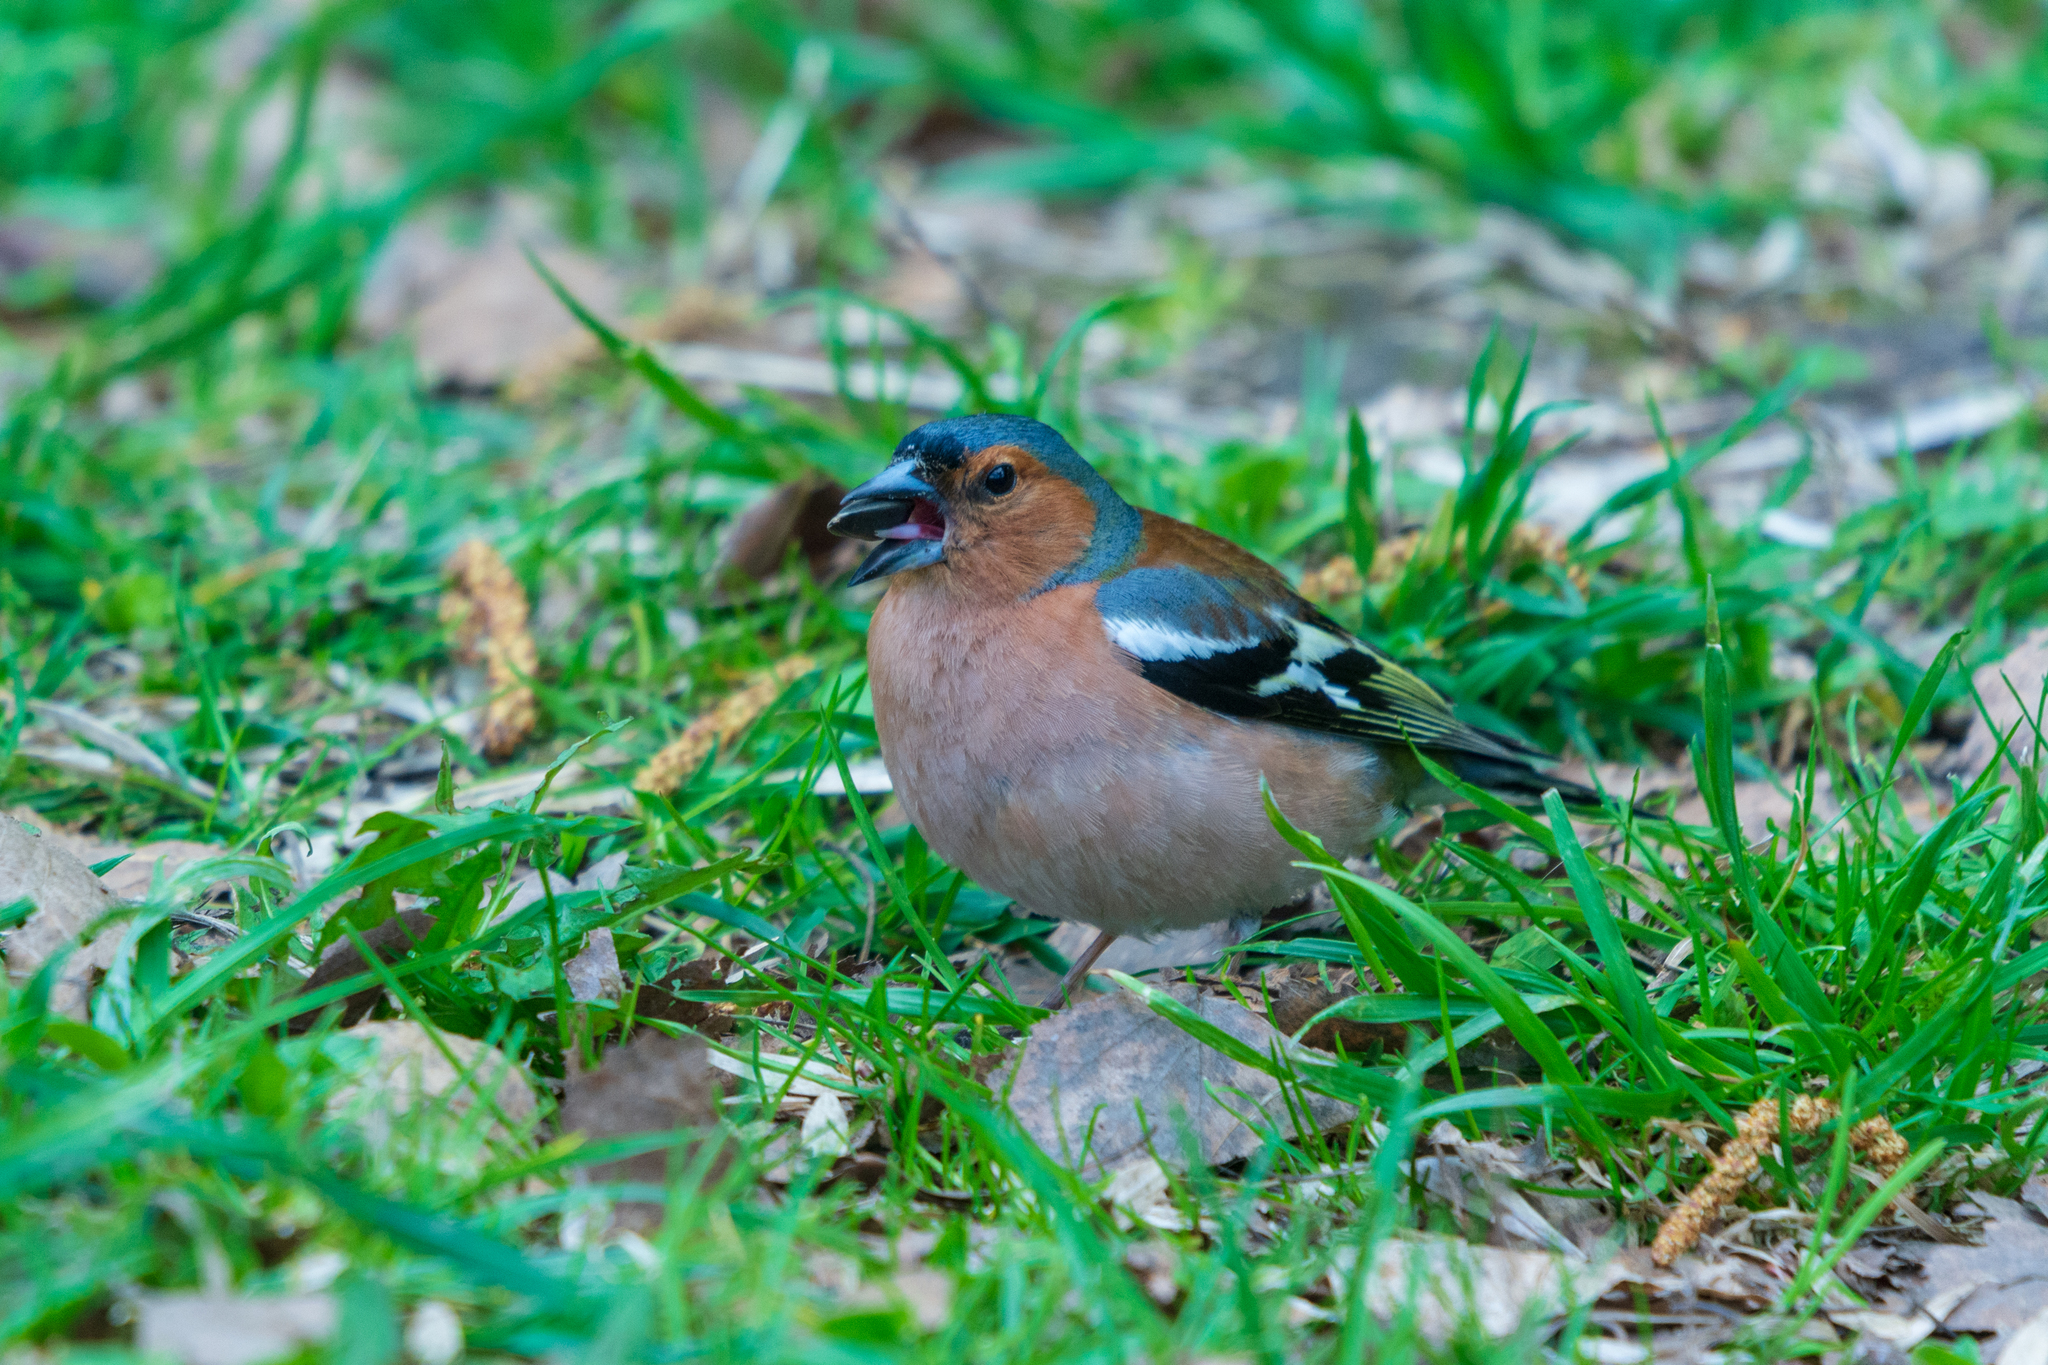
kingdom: Animalia
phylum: Chordata
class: Aves
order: Passeriformes
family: Fringillidae
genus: Fringilla
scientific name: Fringilla coelebs
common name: Common chaffinch
